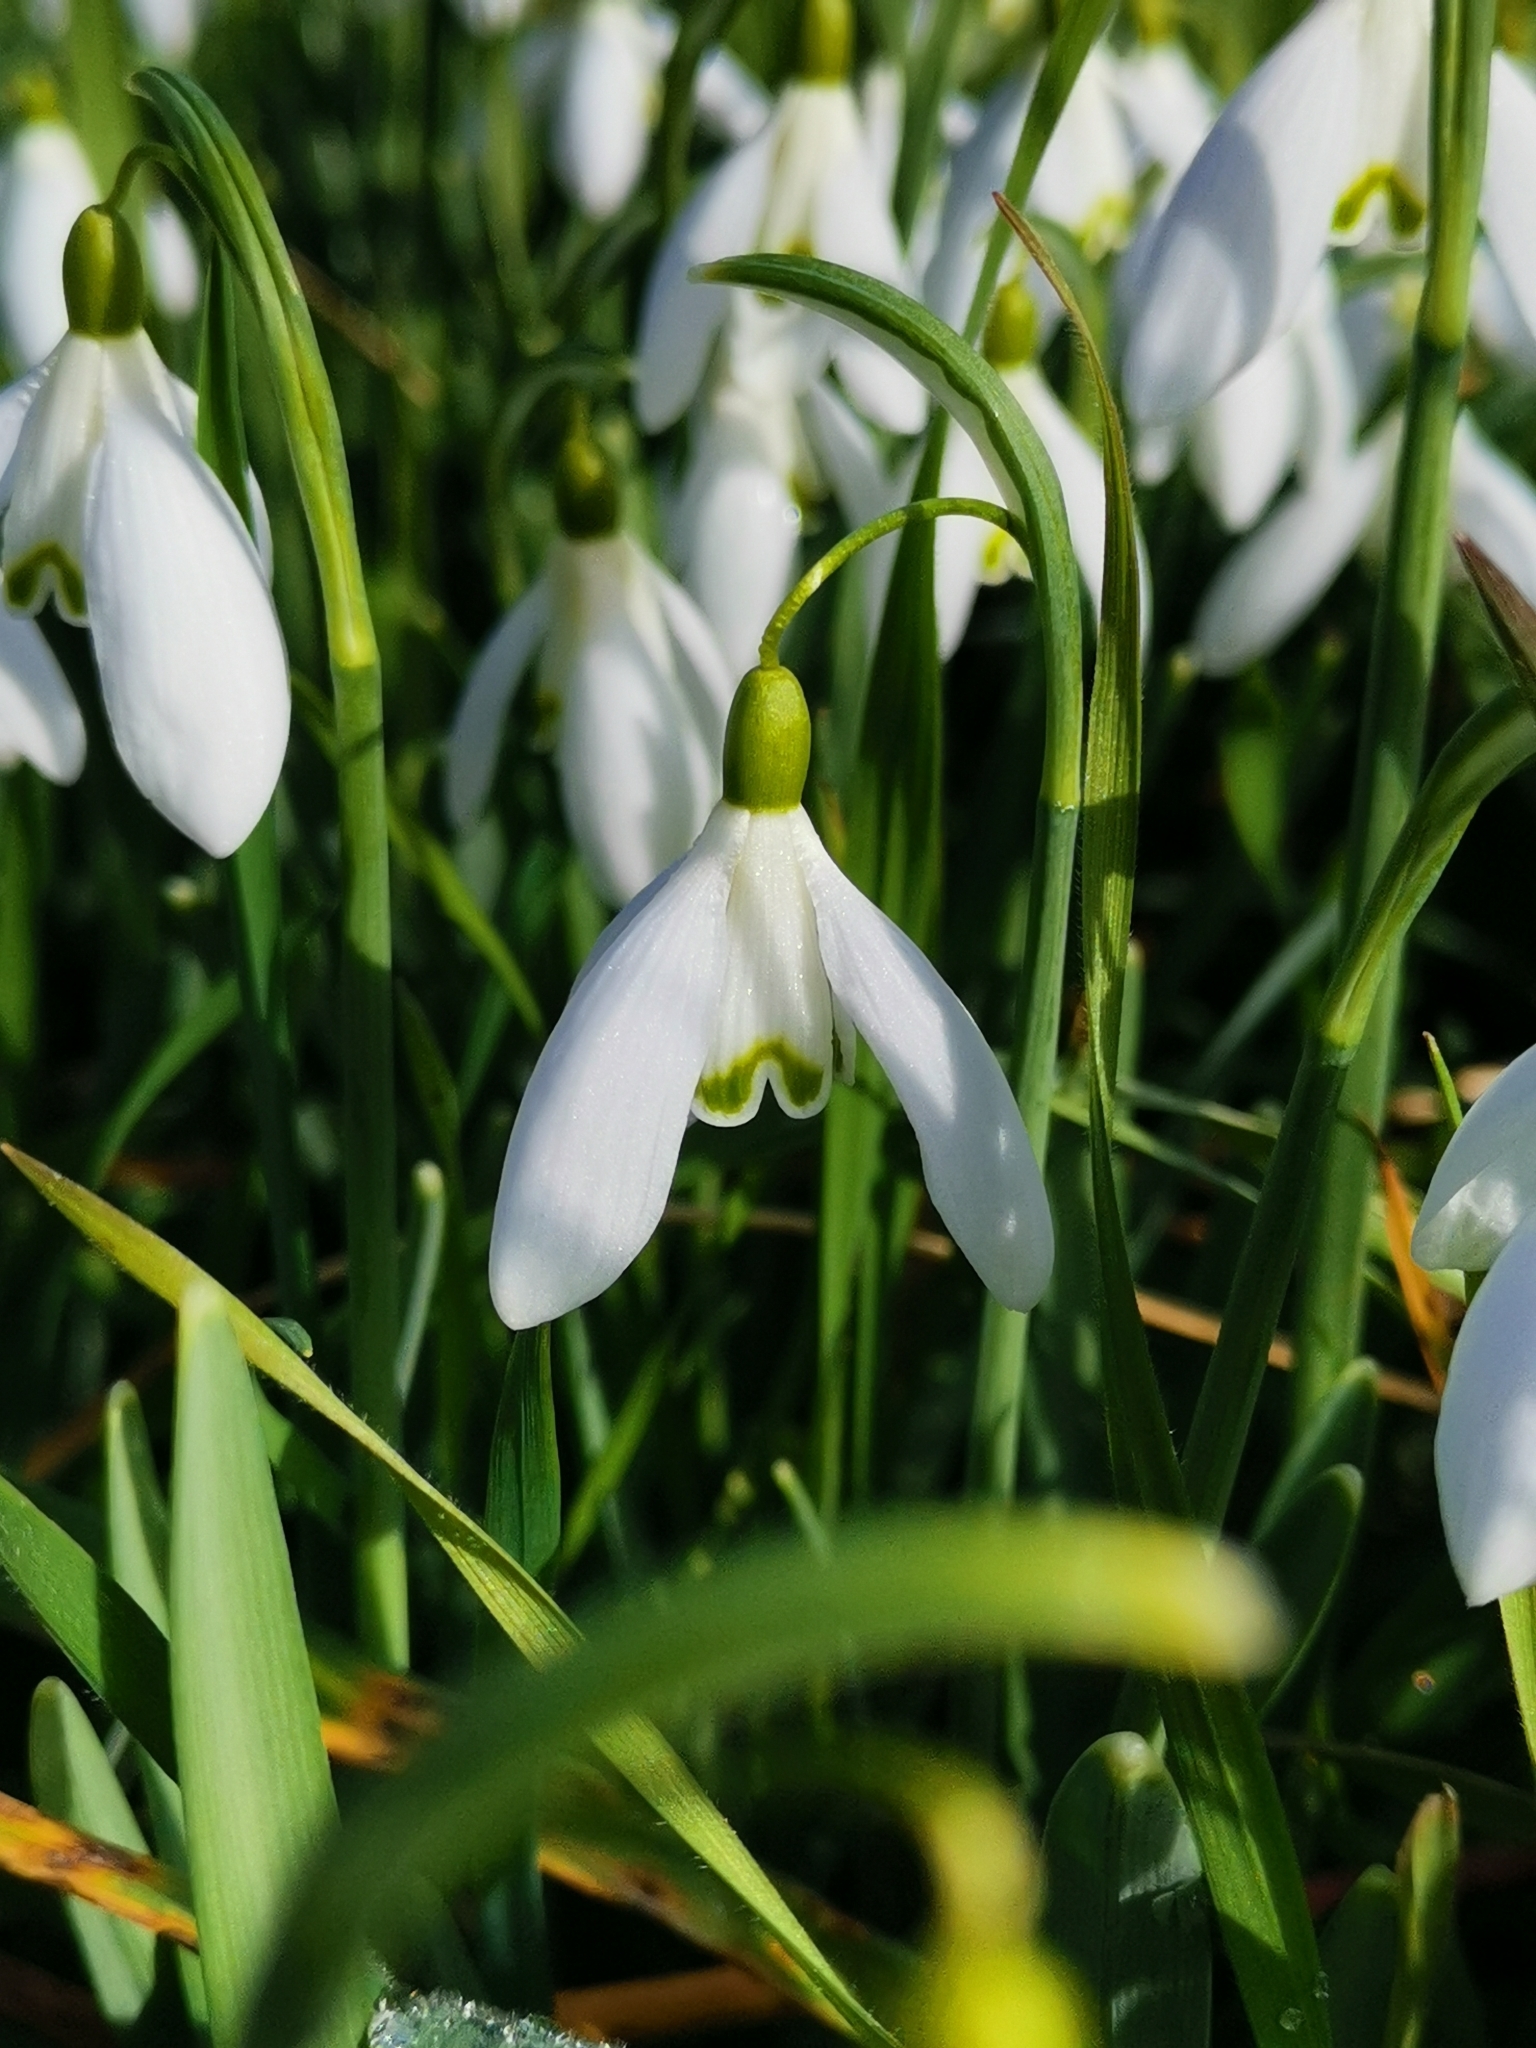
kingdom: Plantae
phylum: Tracheophyta
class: Liliopsida
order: Asparagales
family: Amaryllidaceae
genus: Galanthus
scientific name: Galanthus nivalis
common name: Snowdrop
